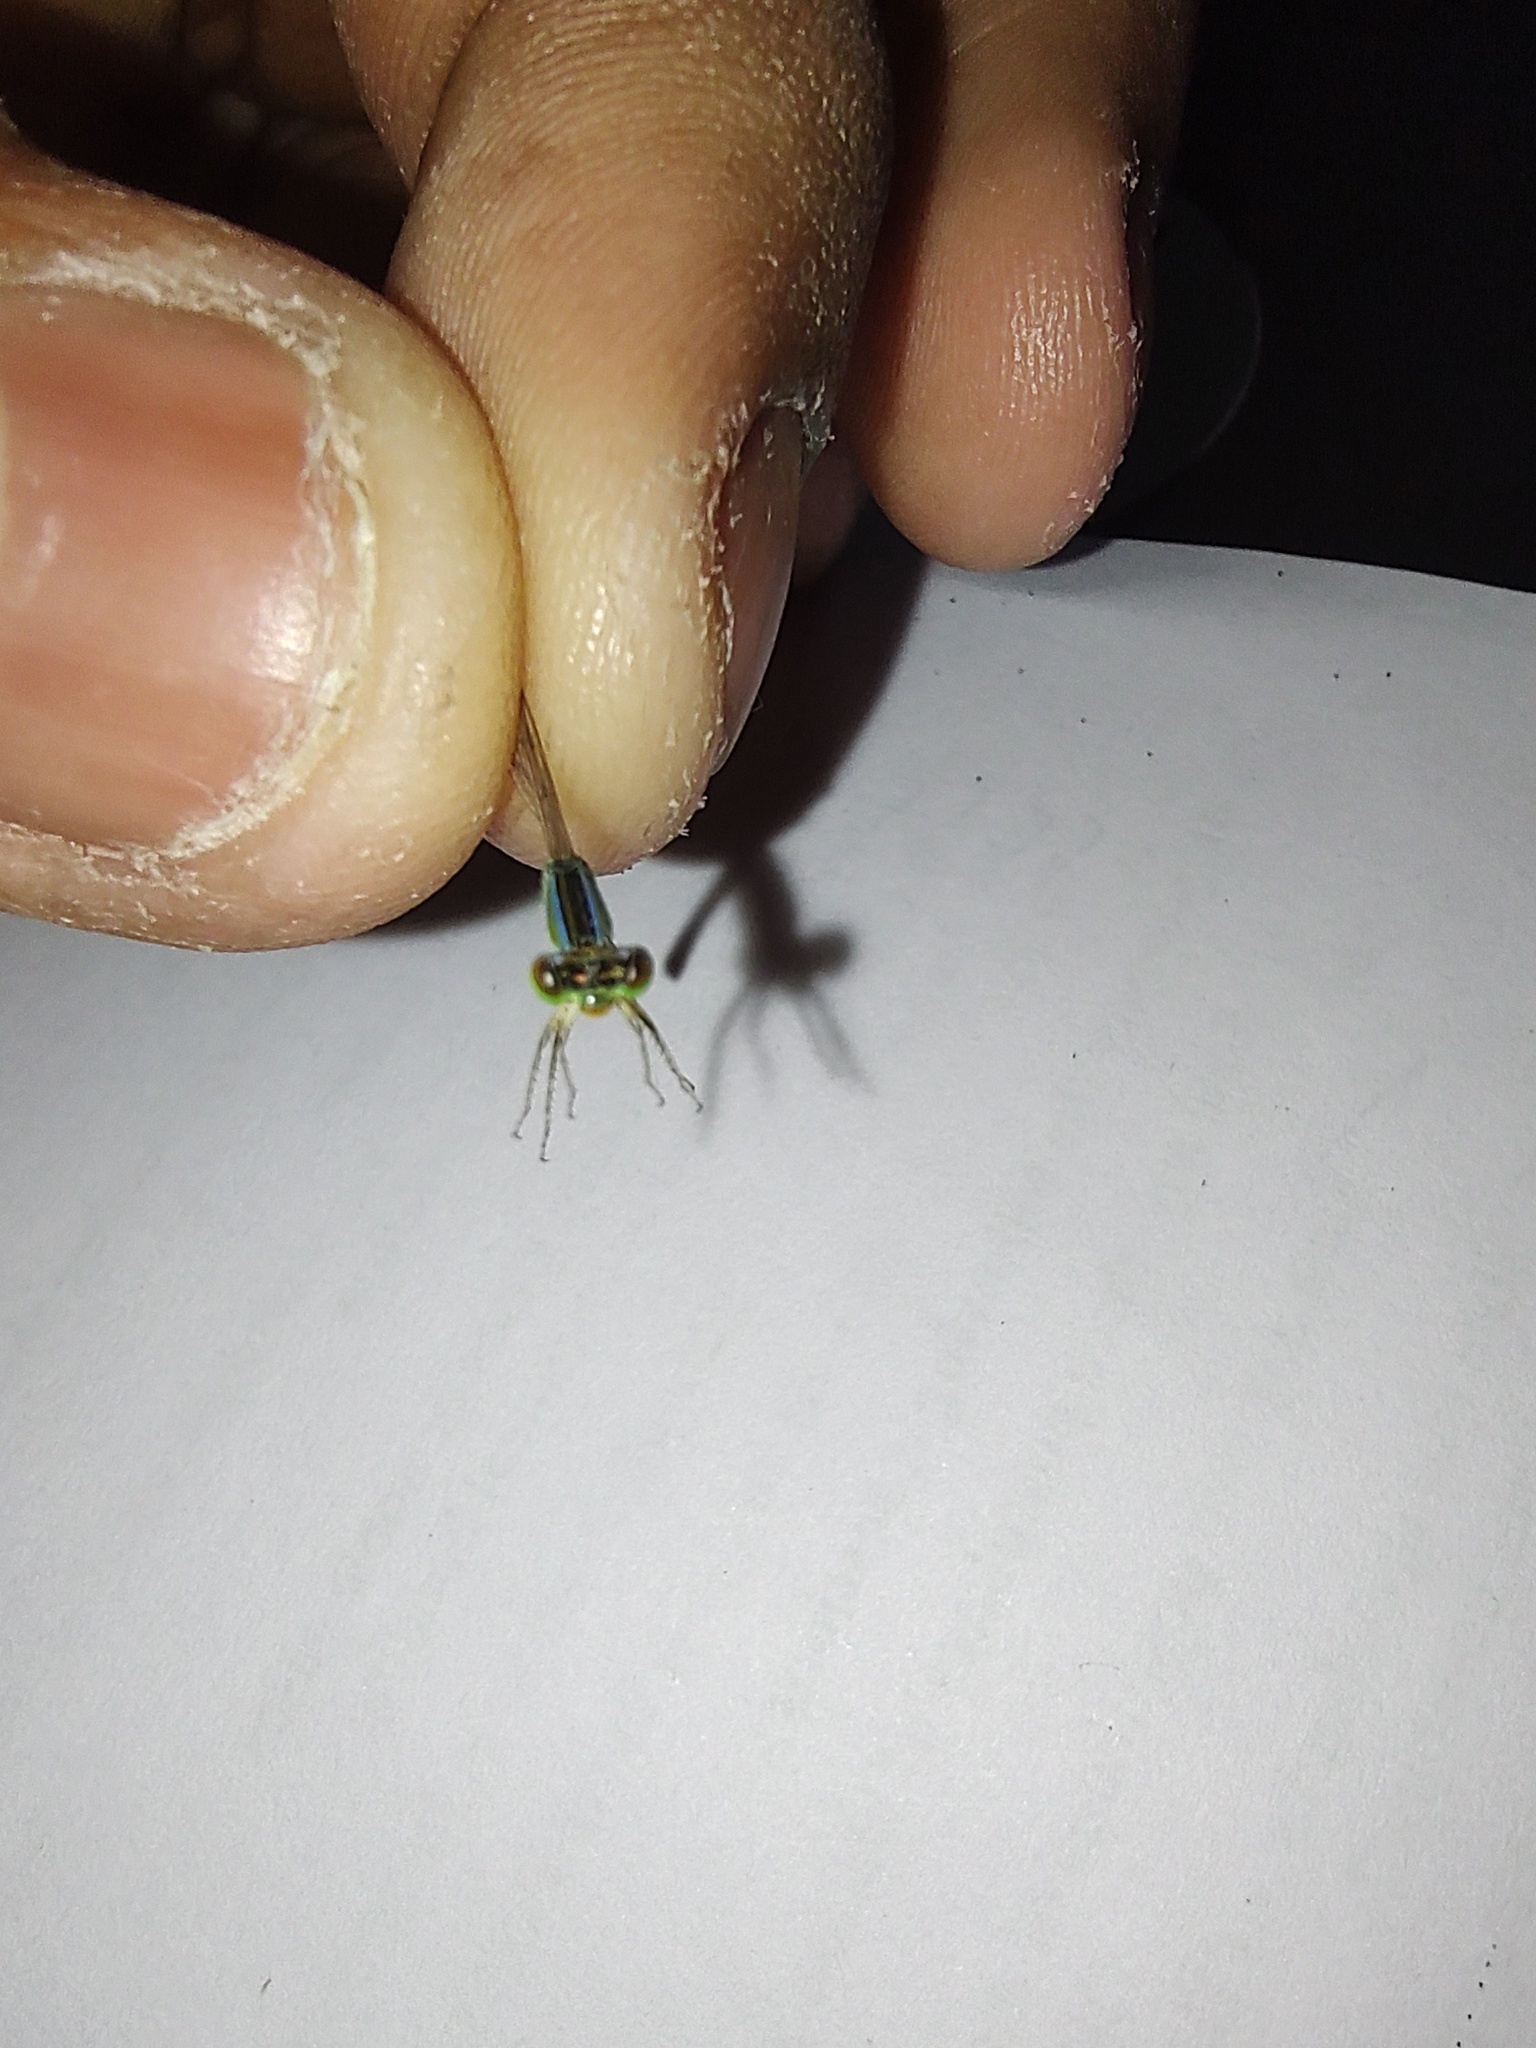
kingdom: Animalia
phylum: Arthropoda
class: Insecta
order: Odonata
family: Coenagrionidae
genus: Agriocnemis
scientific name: Agriocnemis pygmaea
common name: Pygmy wisp
